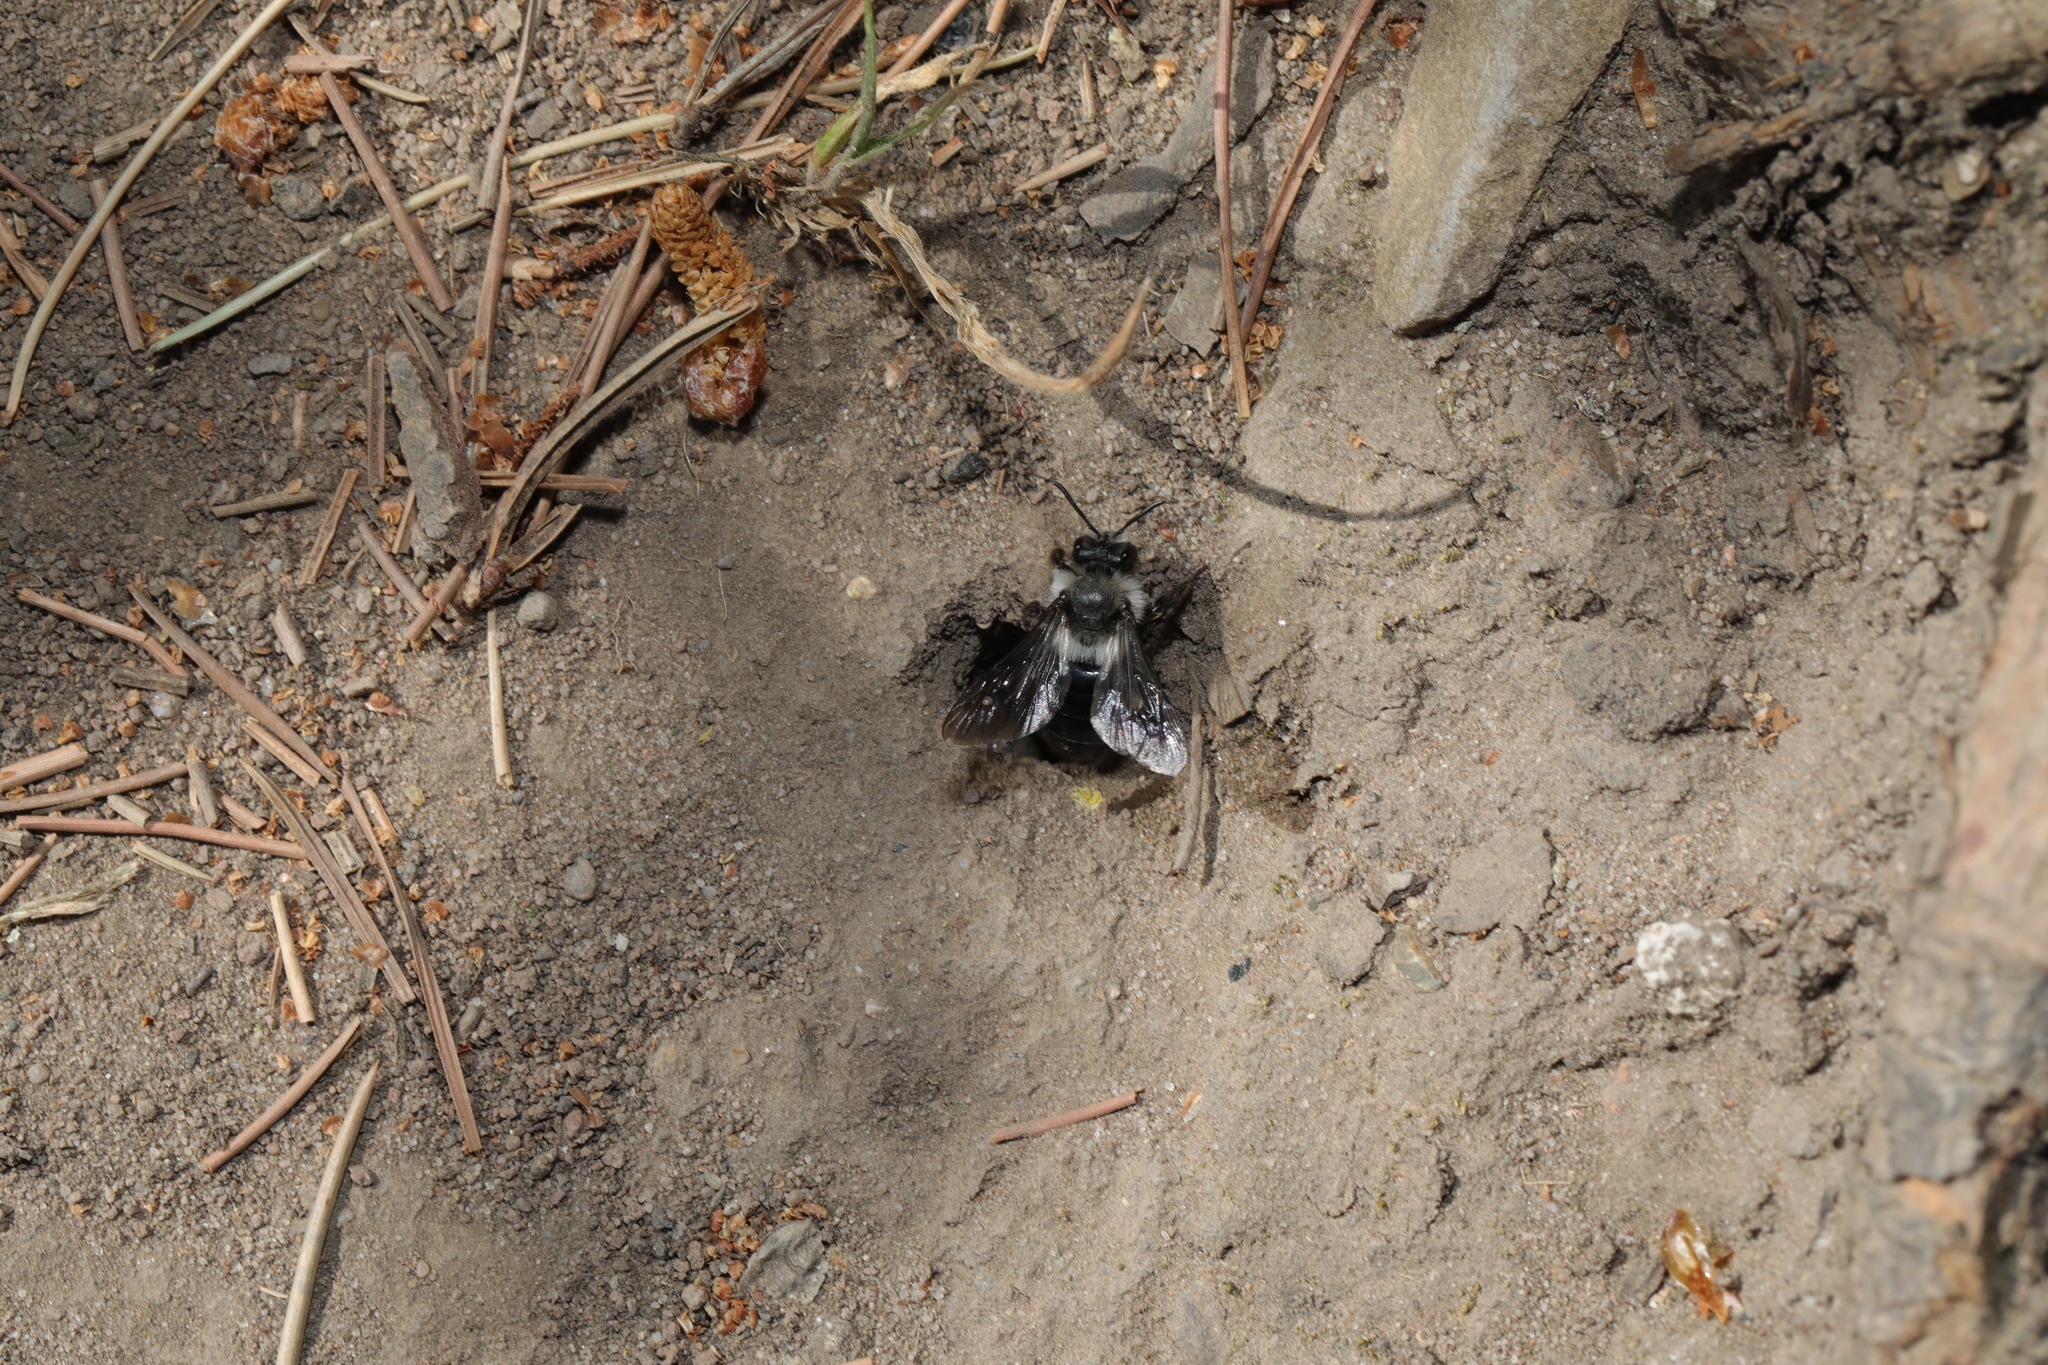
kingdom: Animalia
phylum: Arthropoda
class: Insecta
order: Hymenoptera
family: Andrenidae
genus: Andrena
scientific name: Andrena cineraria
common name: Ashy mining bee
